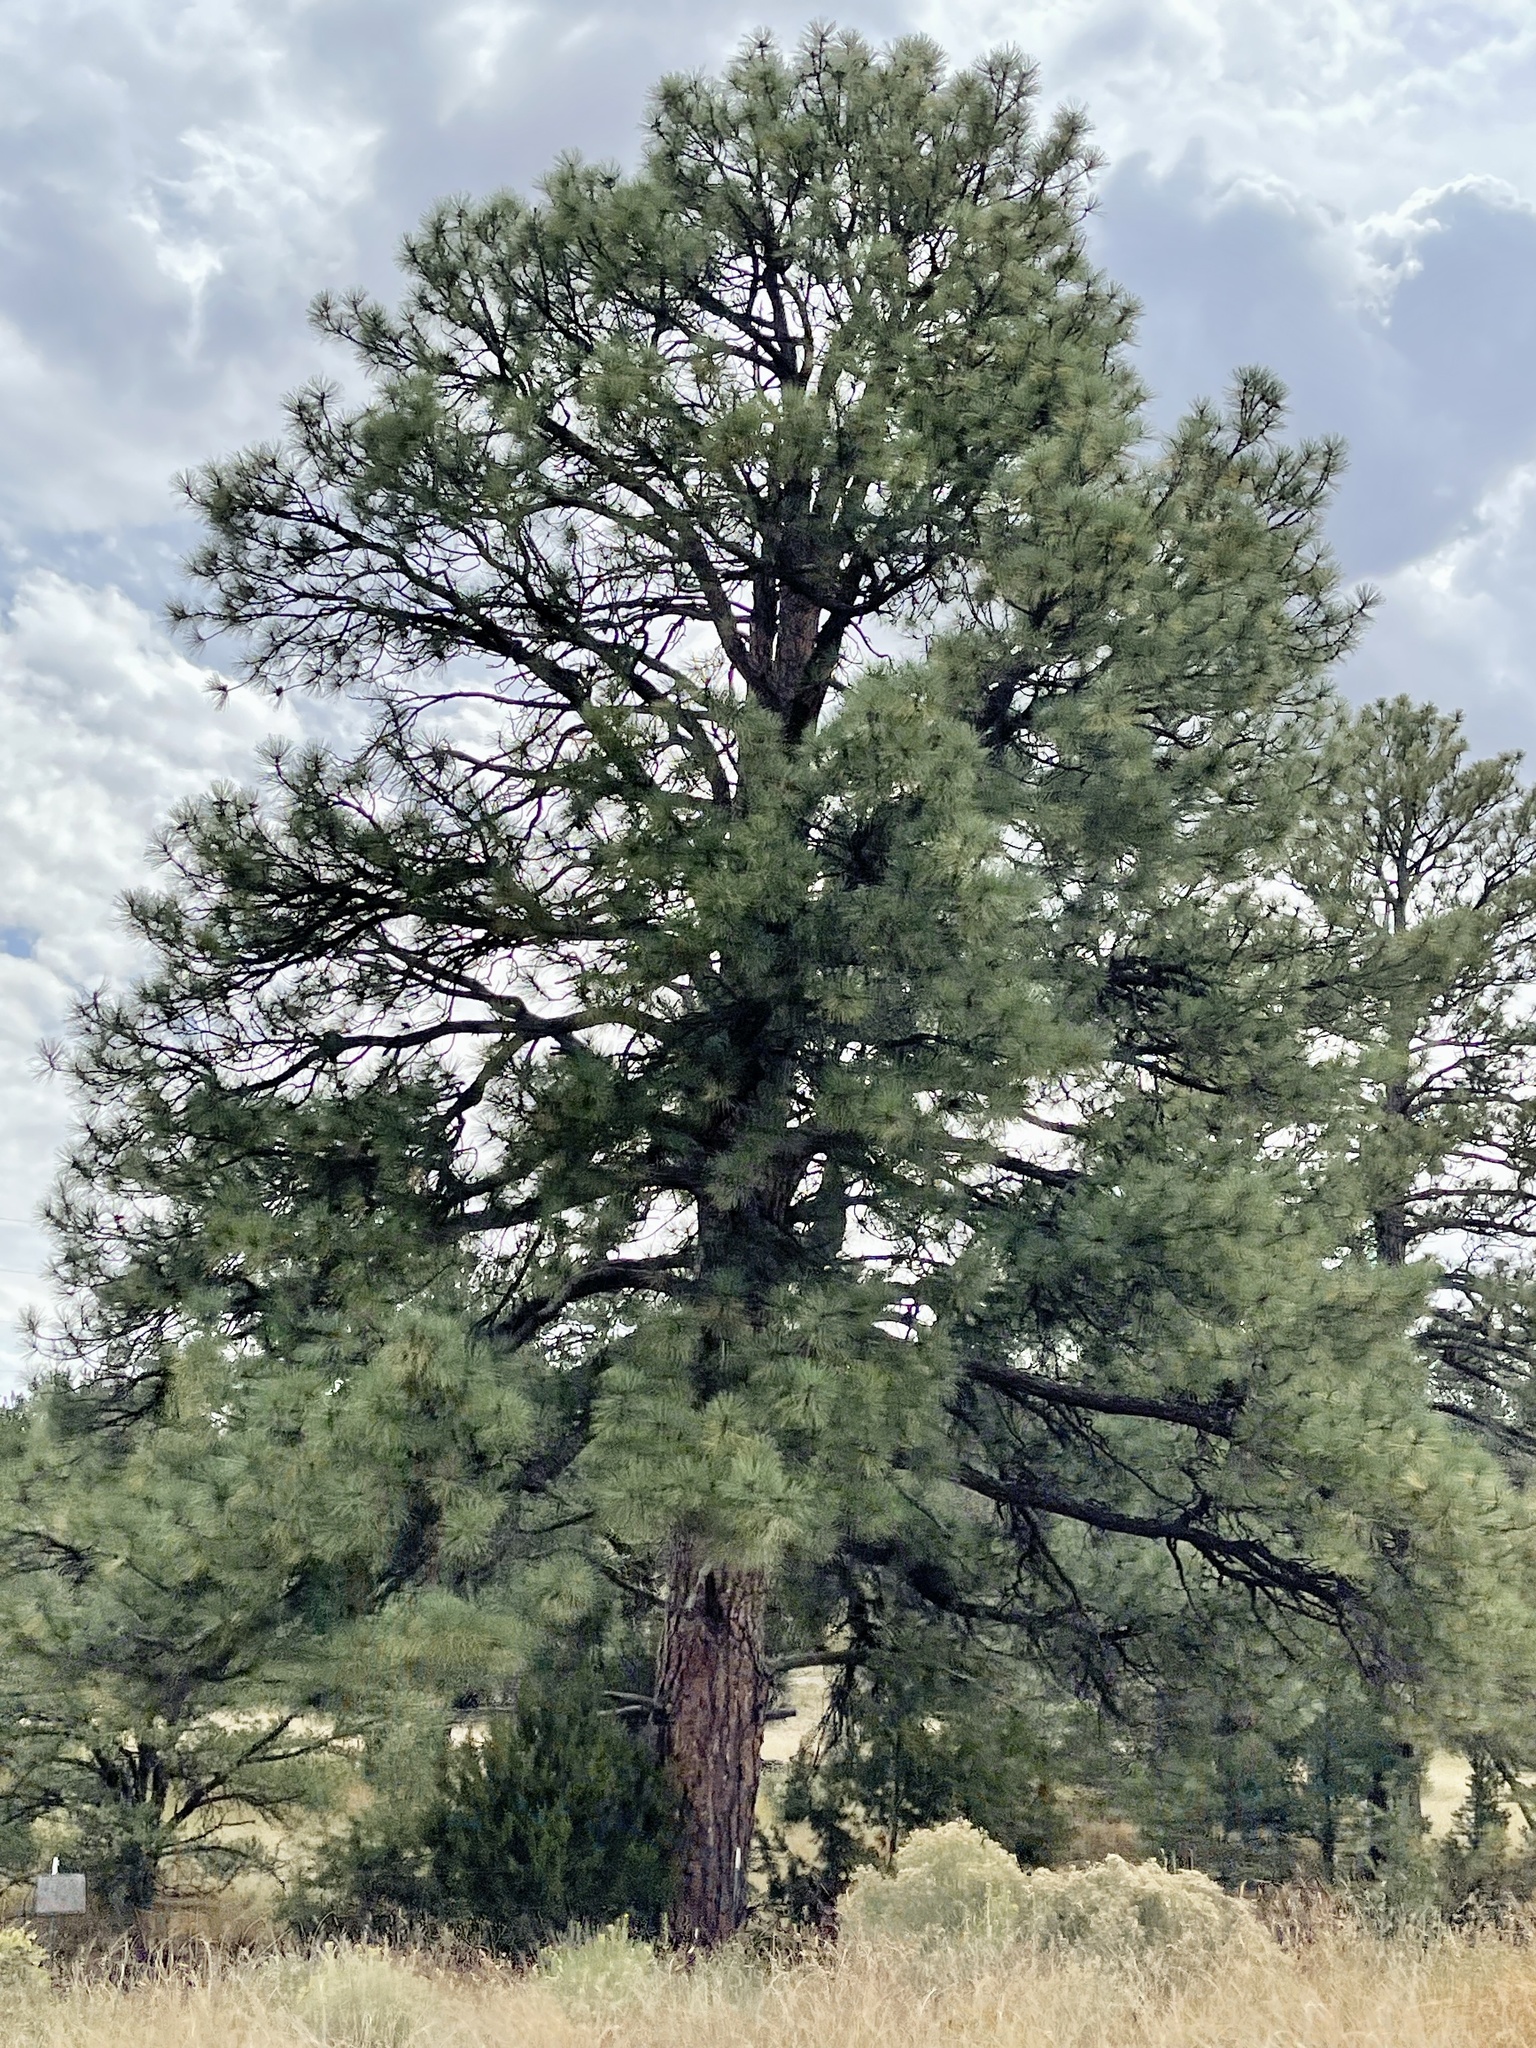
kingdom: Plantae
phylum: Tracheophyta
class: Pinopsida
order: Pinales
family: Pinaceae
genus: Pinus
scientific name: Pinus ponderosa
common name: Western yellow-pine
